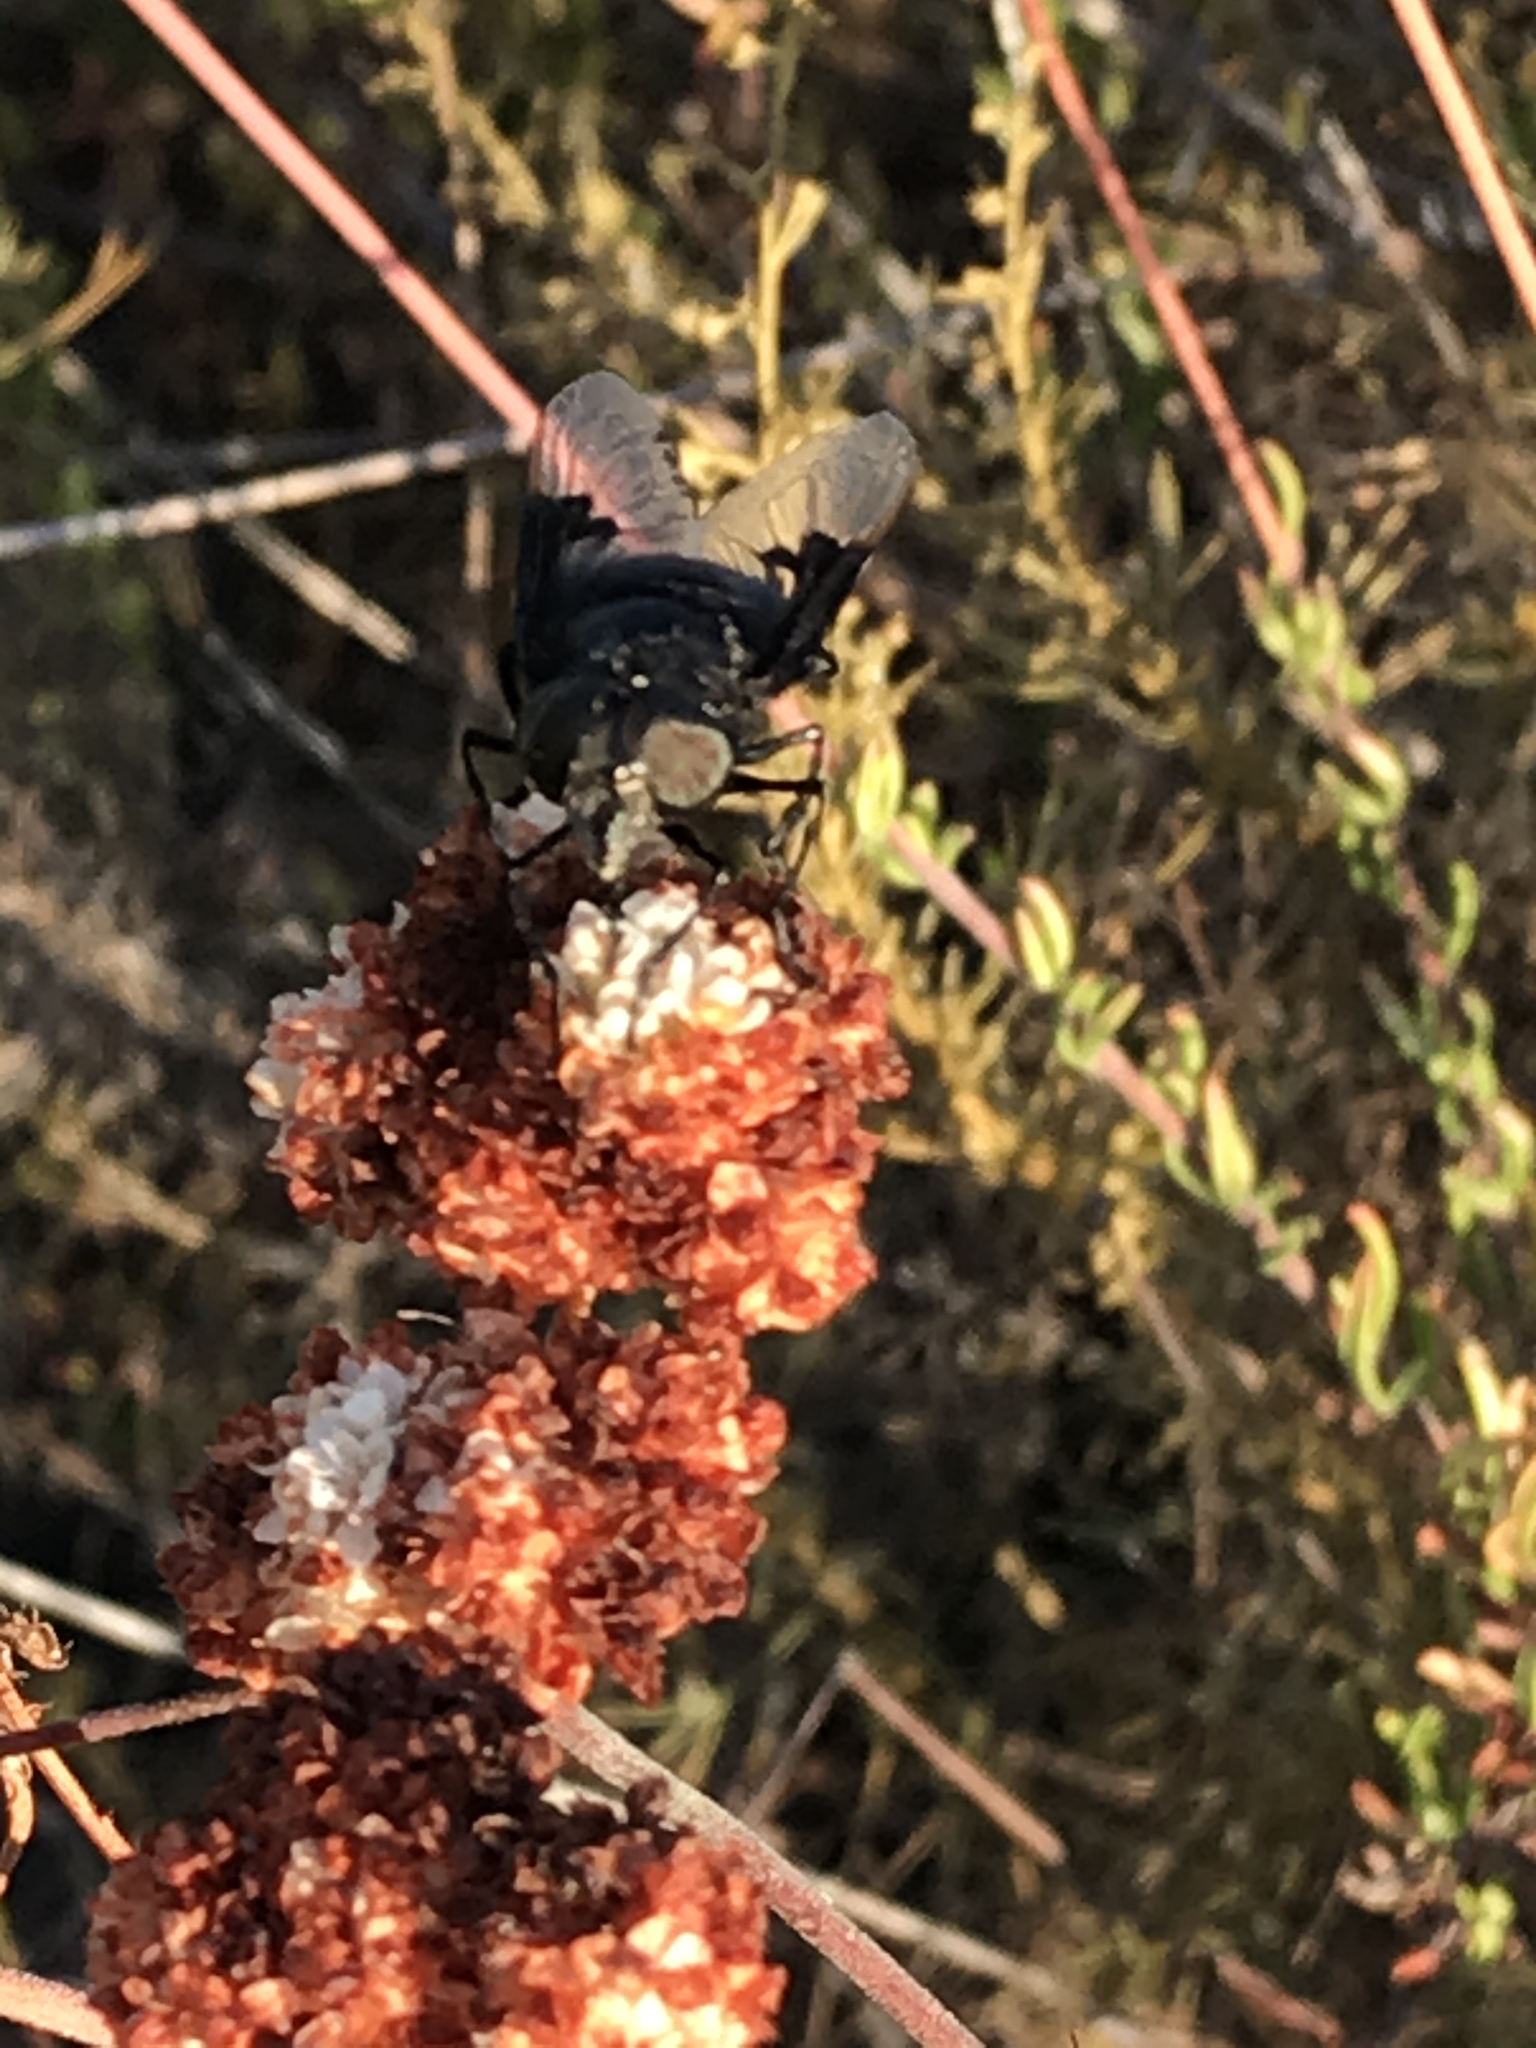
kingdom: Animalia
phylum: Arthropoda
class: Insecta
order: Diptera
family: Syrphidae
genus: Copestylum
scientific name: Copestylum
